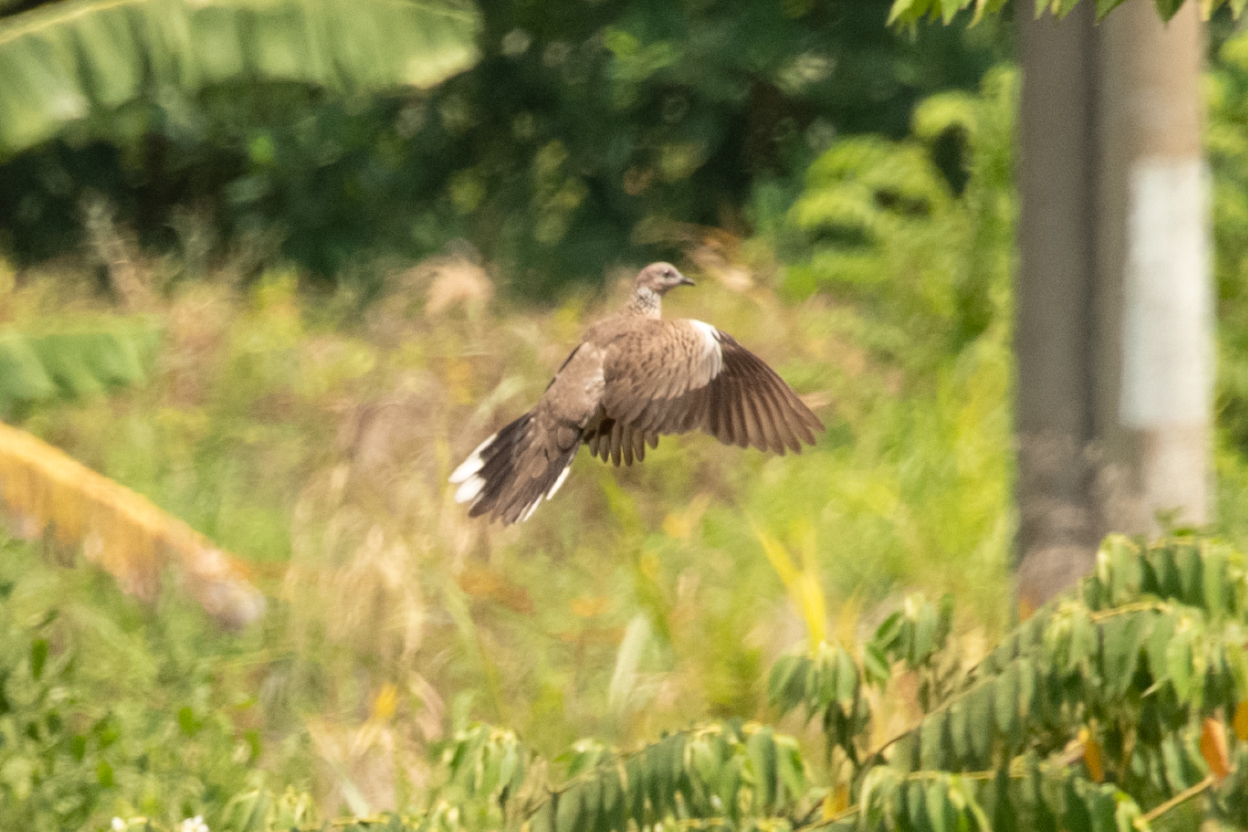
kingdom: Animalia
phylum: Chordata
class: Aves
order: Columbiformes
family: Columbidae
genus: Spilopelia
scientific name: Spilopelia chinensis
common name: Spotted dove
